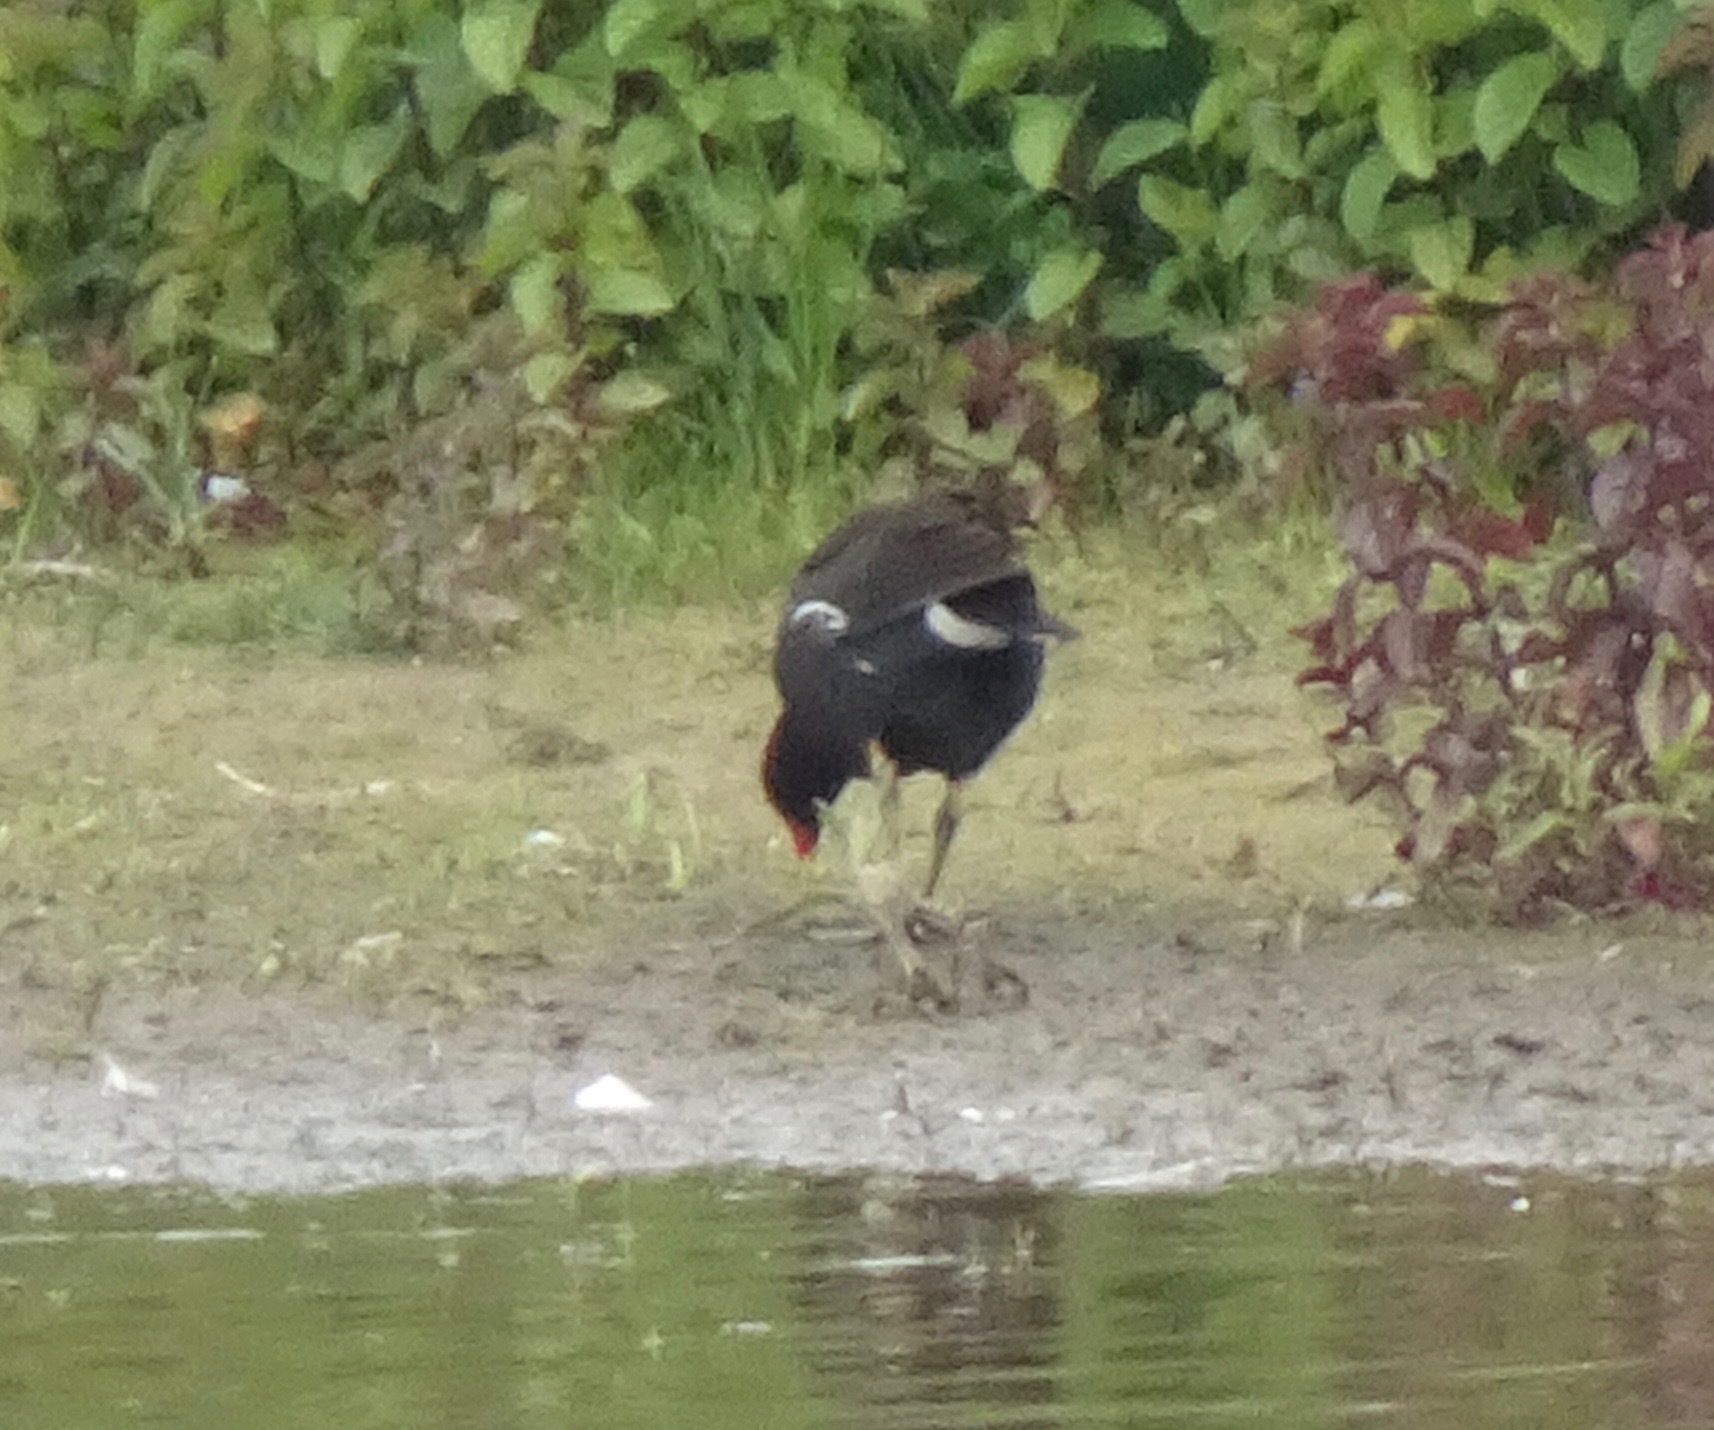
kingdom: Animalia
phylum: Chordata
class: Aves
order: Gruiformes
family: Rallidae
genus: Gallinula
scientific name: Gallinula chloropus
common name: Common moorhen
